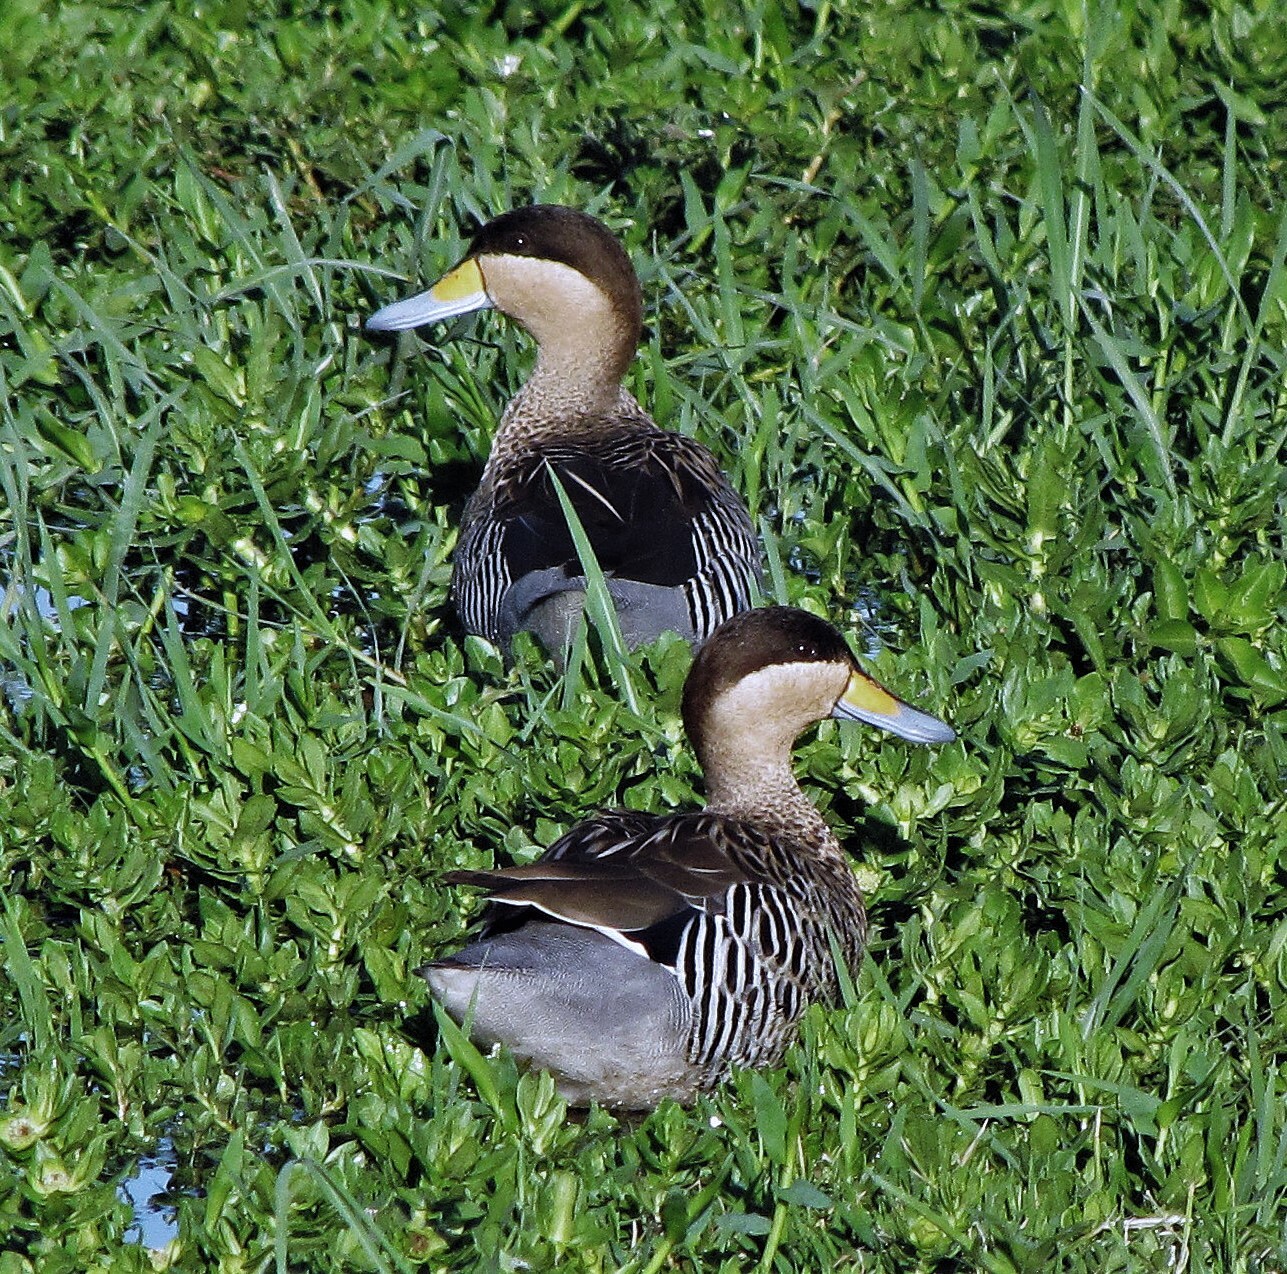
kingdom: Animalia
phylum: Chordata
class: Aves
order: Anseriformes
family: Anatidae
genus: Spatula
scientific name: Spatula versicolor
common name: Silver teal
